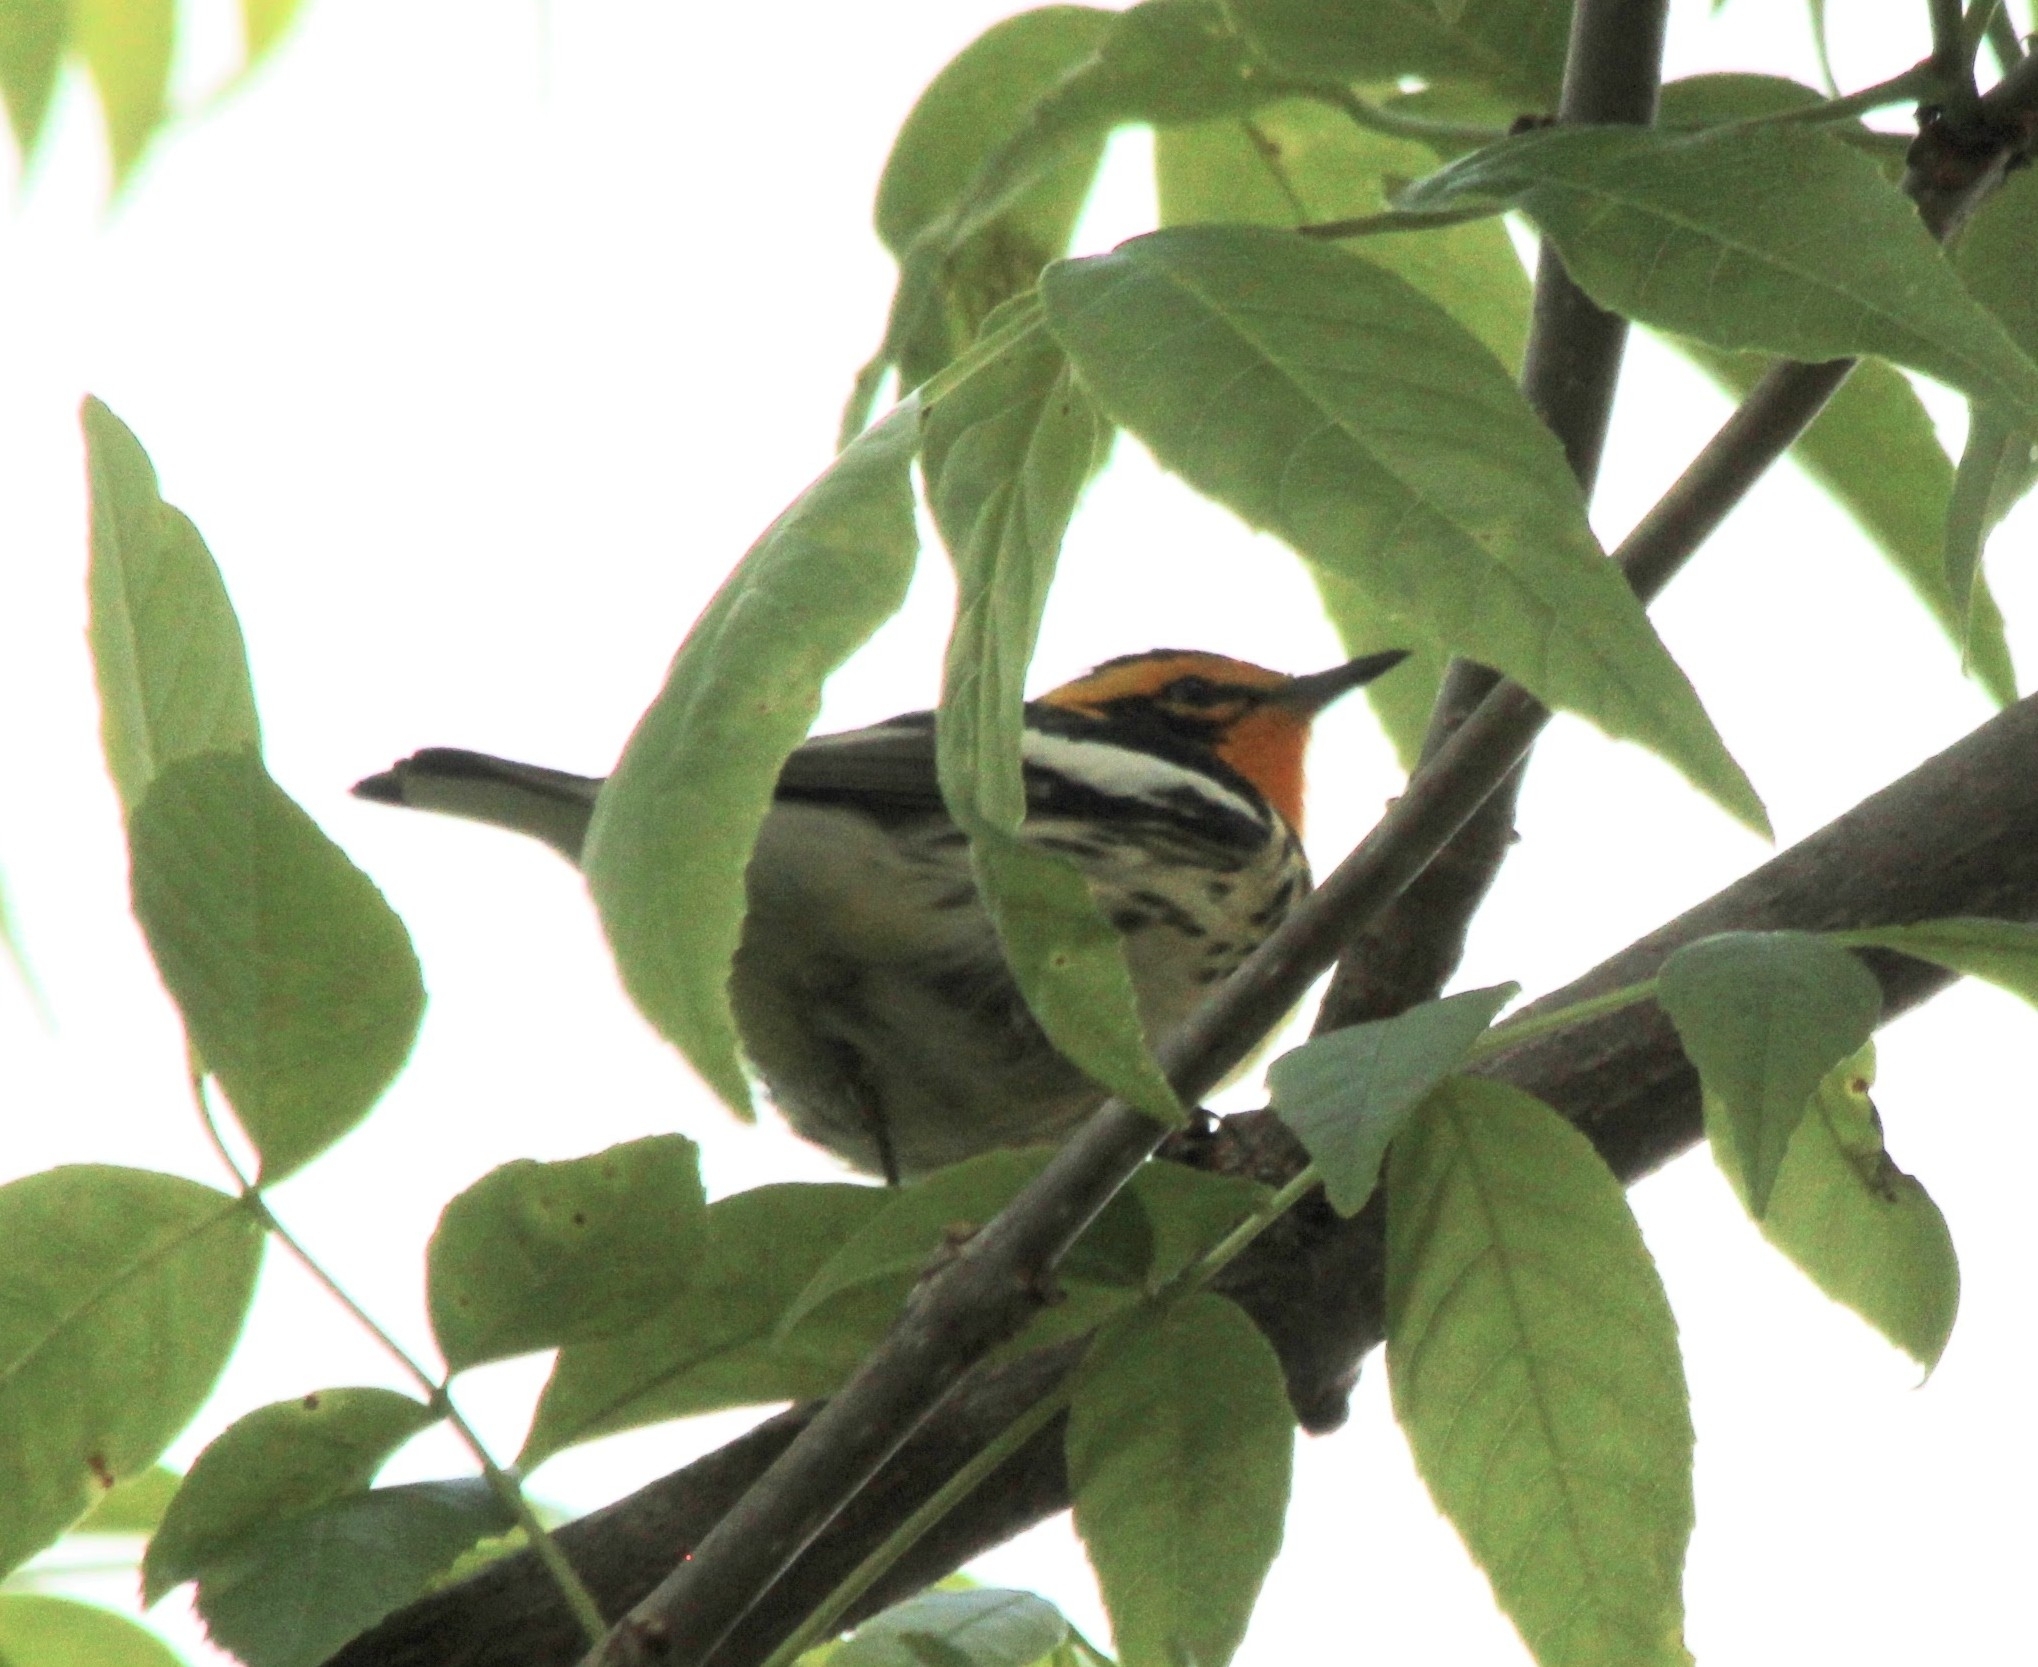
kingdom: Animalia
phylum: Chordata
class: Aves
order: Passeriformes
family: Parulidae
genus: Setophaga
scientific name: Setophaga fusca
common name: Blackburnian warbler
